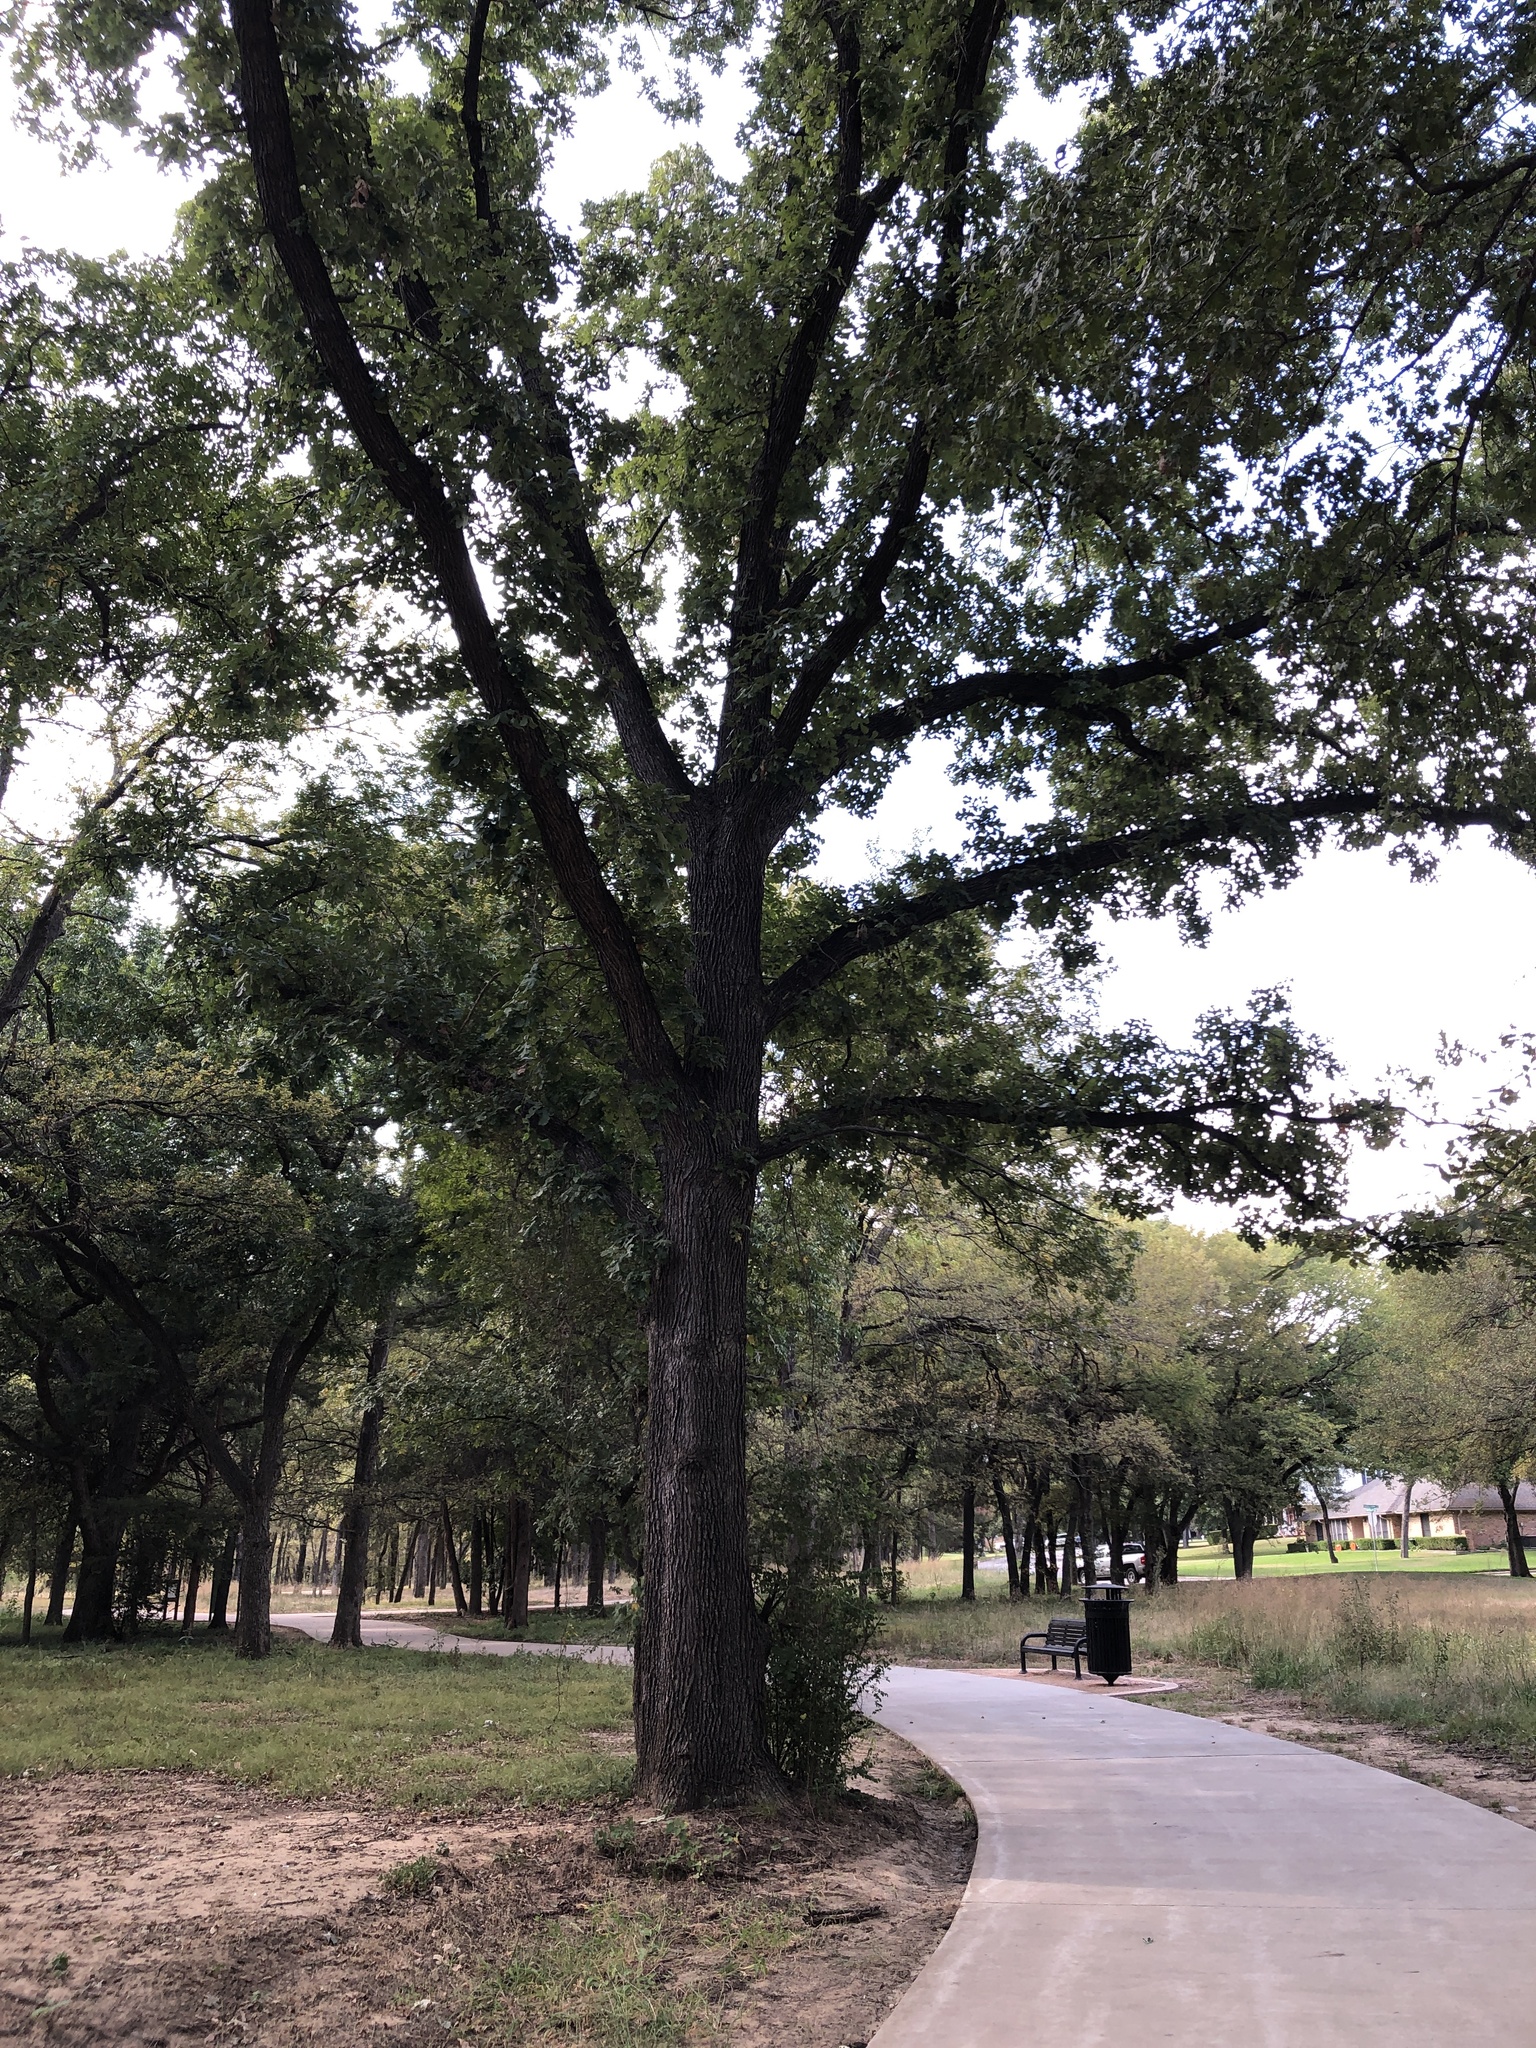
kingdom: Plantae
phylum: Tracheophyta
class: Magnoliopsida
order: Fagales
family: Fagaceae
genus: Quercus
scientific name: Quercus macrocarpa
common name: Bur oak
